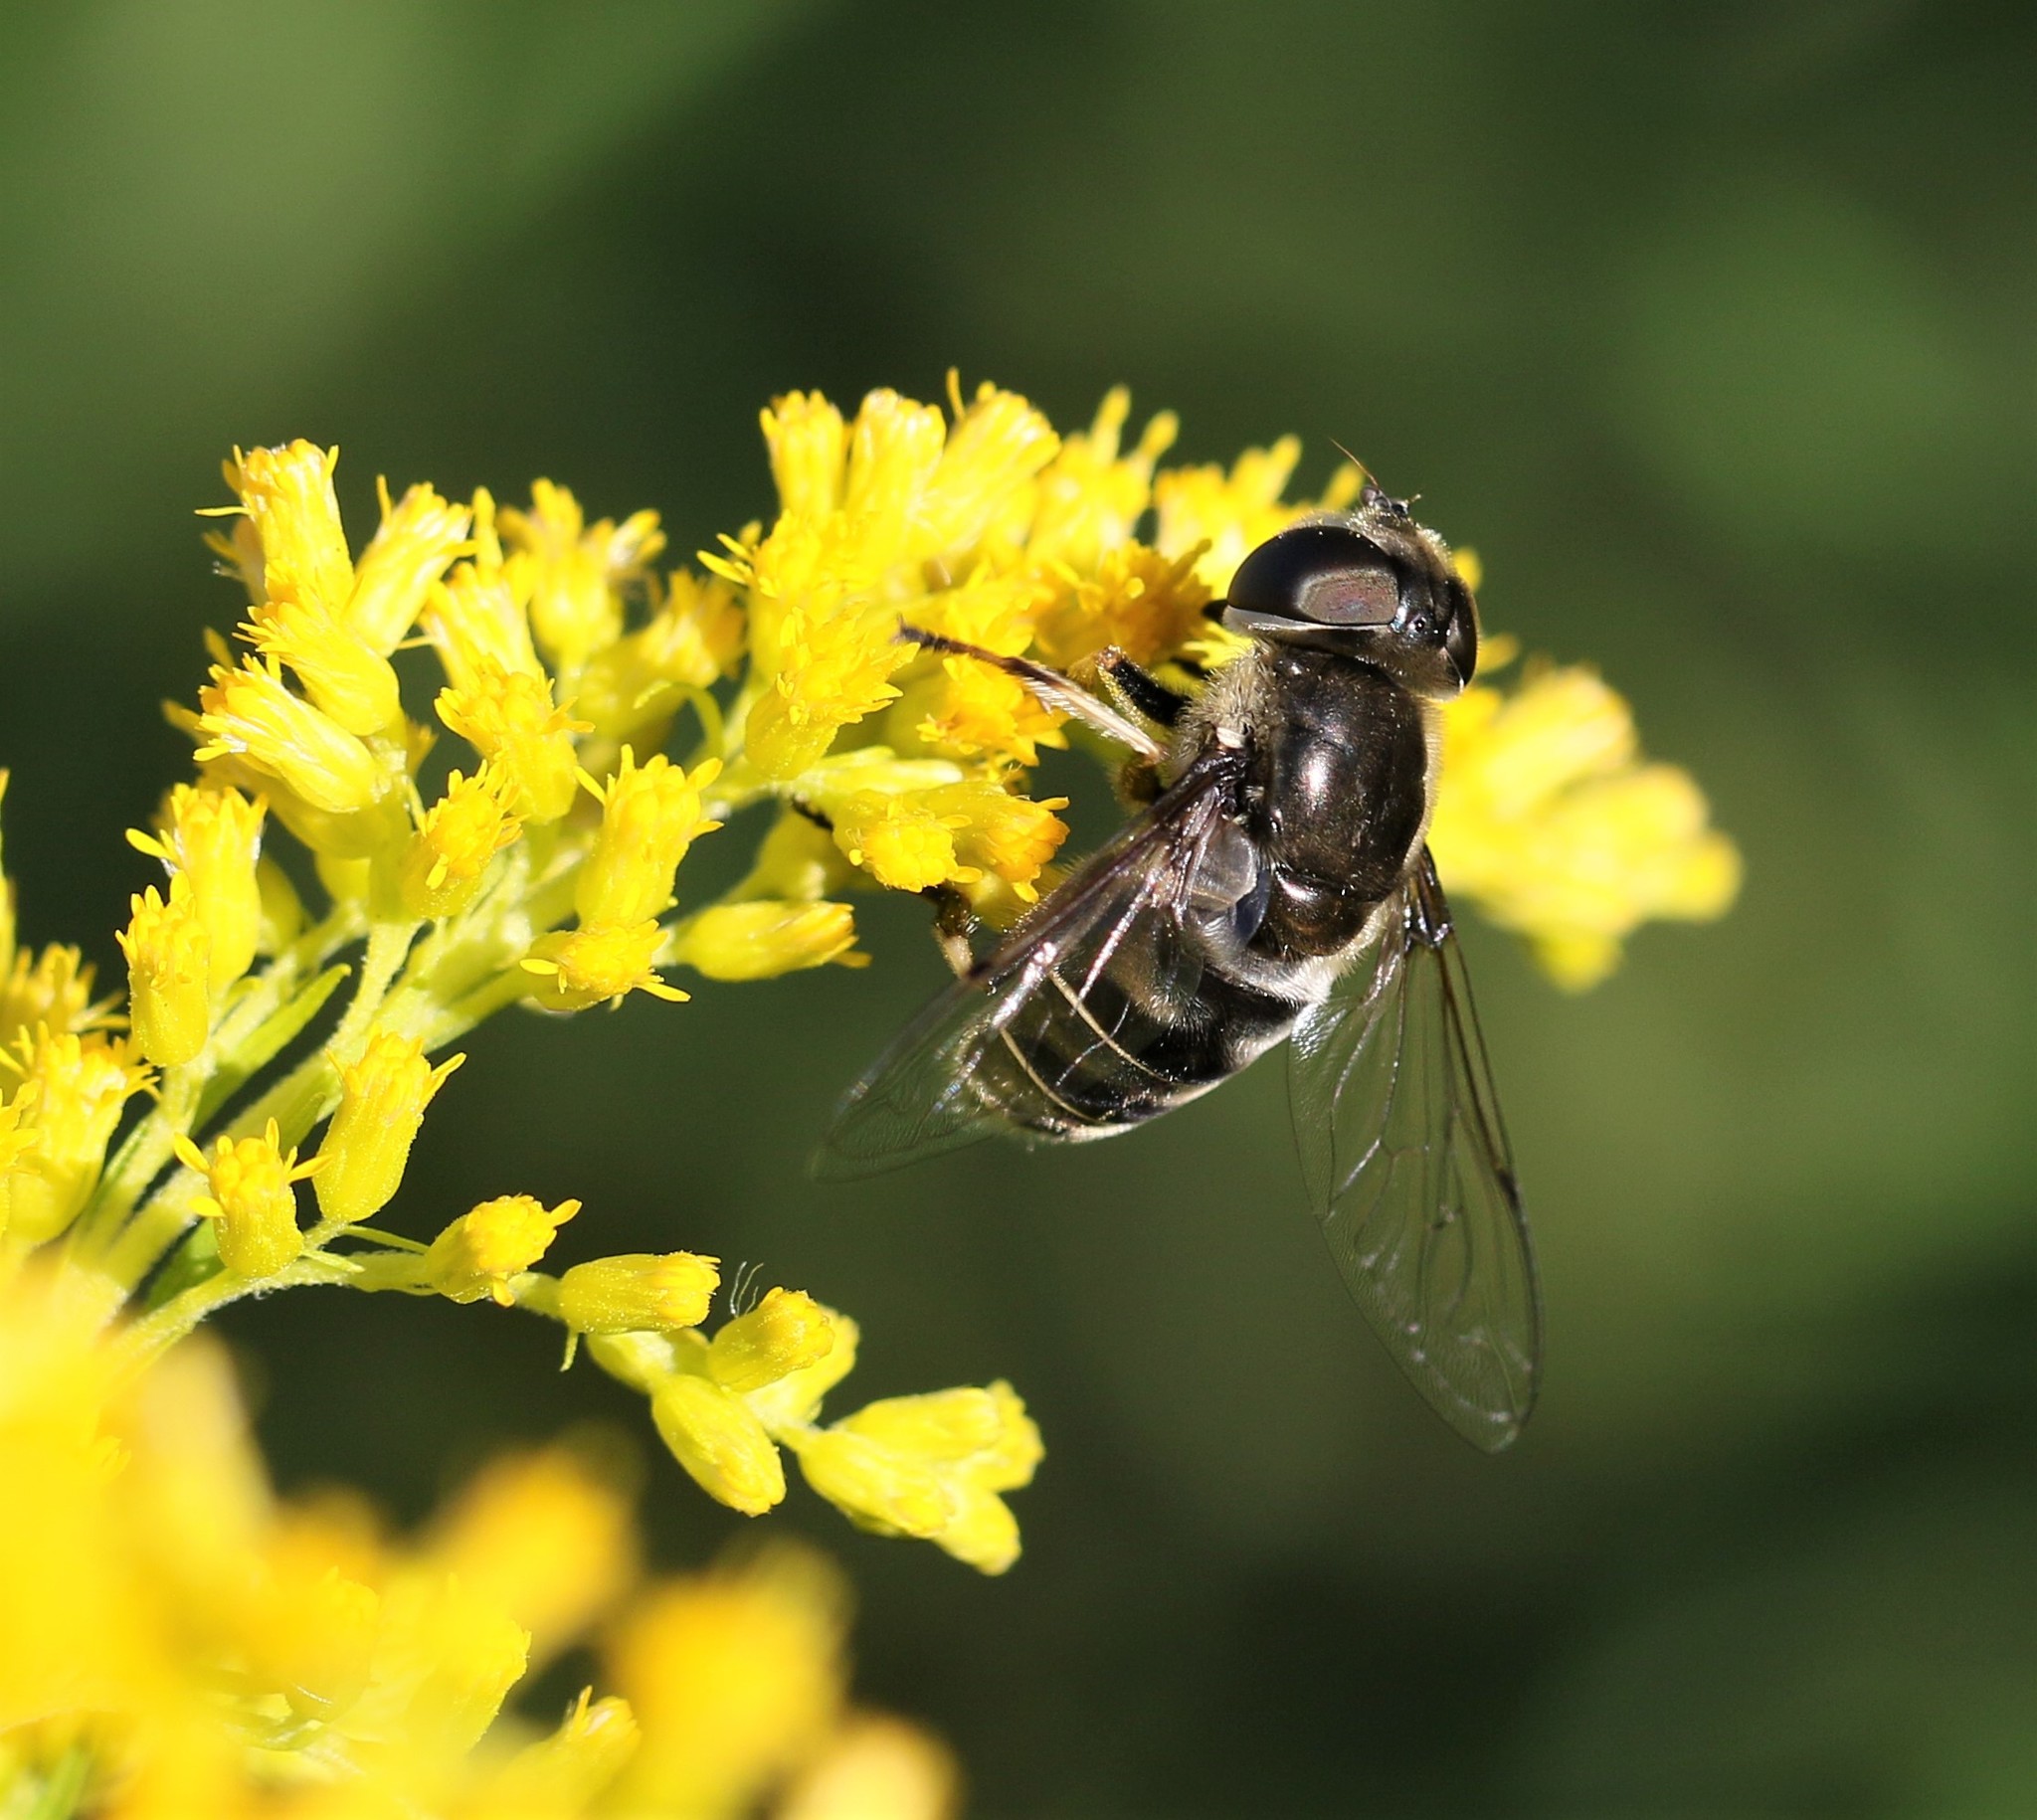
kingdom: Animalia
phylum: Arthropoda
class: Insecta
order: Diptera
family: Syrphidae
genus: Eristalis
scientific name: Eristalis dimidiata
